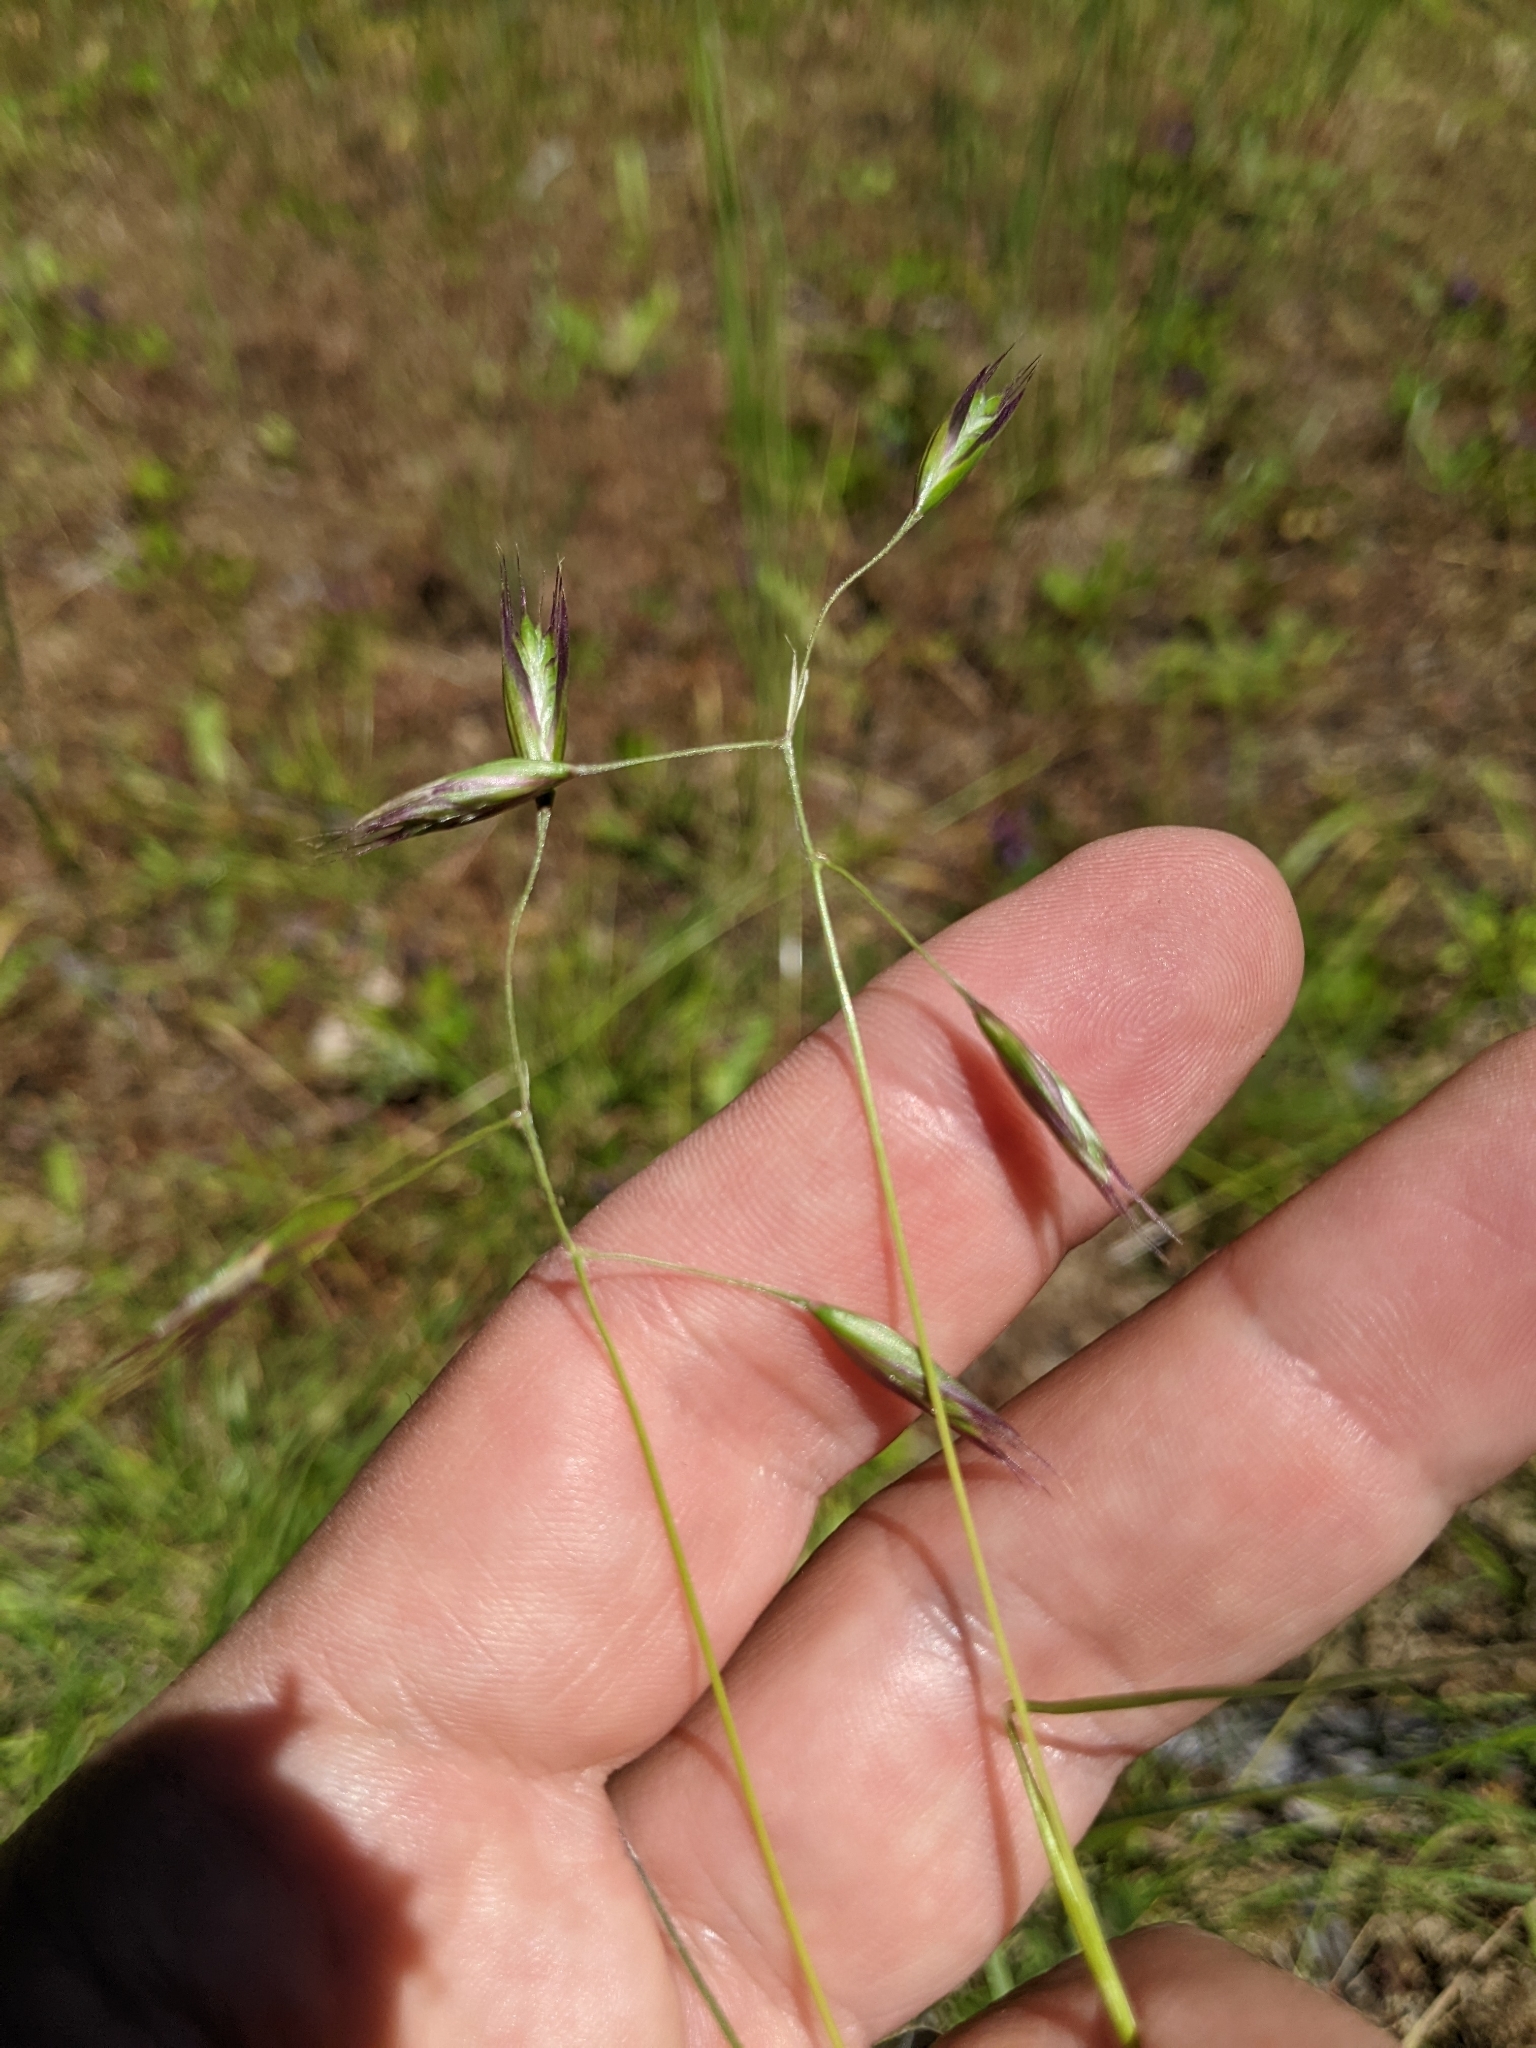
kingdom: Plantae
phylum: Tracheophyta
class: Liliopsida
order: Poales
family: Poaceae
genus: Danthonia
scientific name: Danthonia californica
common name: California oat grass
